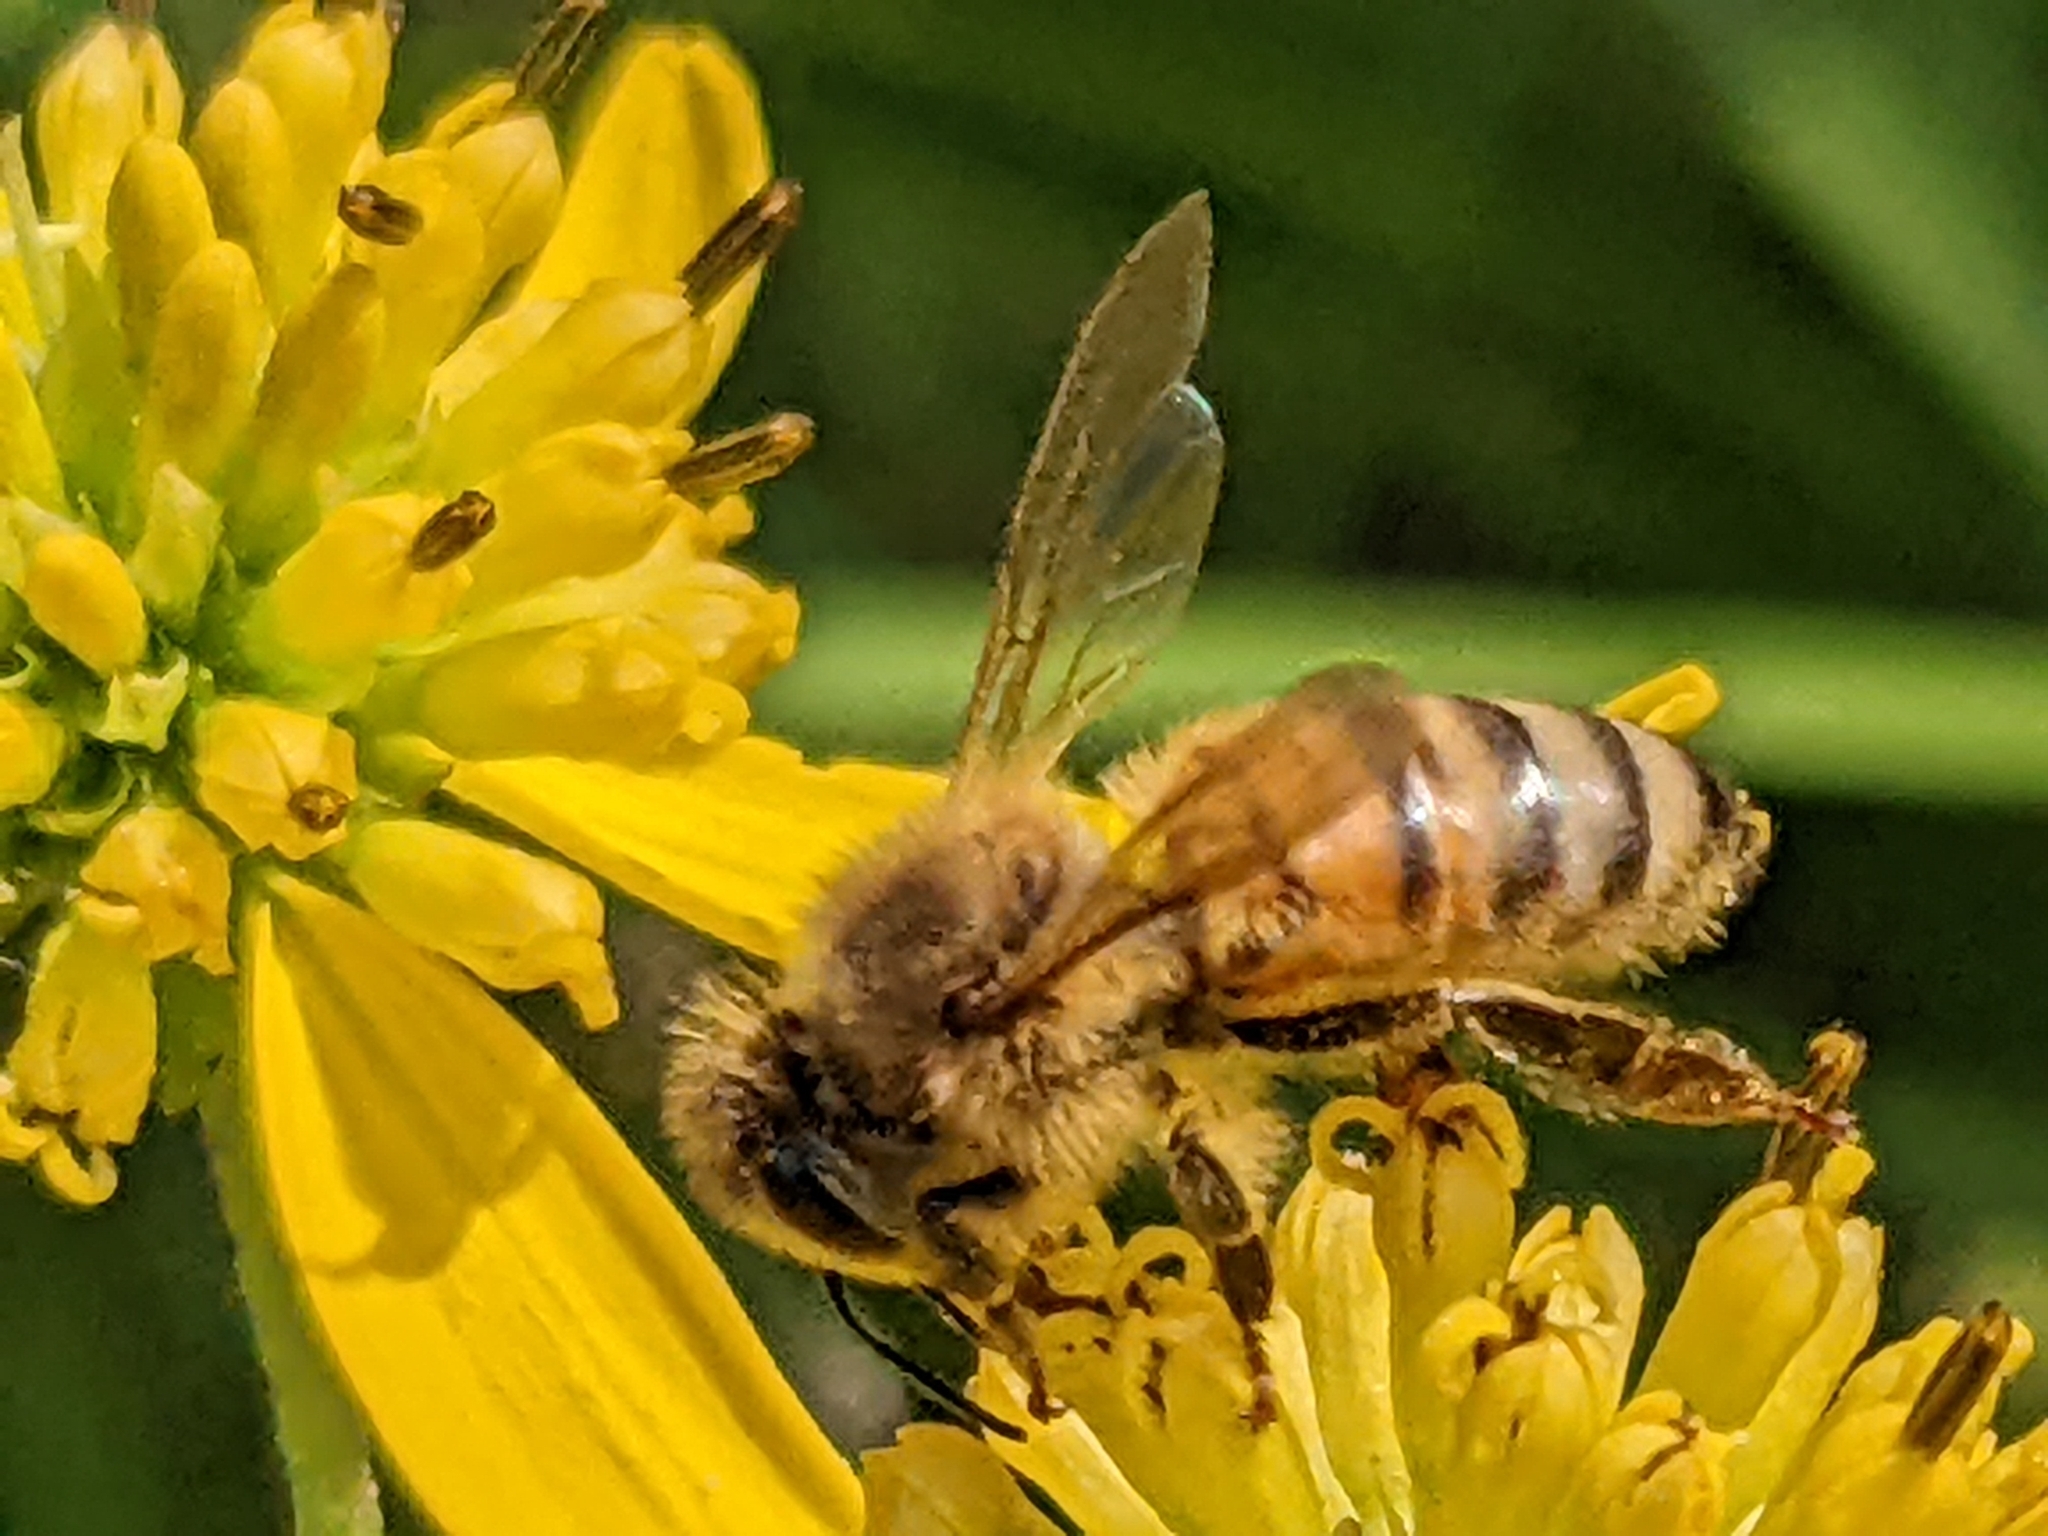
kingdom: Animalia
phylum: Arthropoda
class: Insecta
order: Hymenoptera
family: Apidae
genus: Apis
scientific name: Apis mellifera
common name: Honey bee
